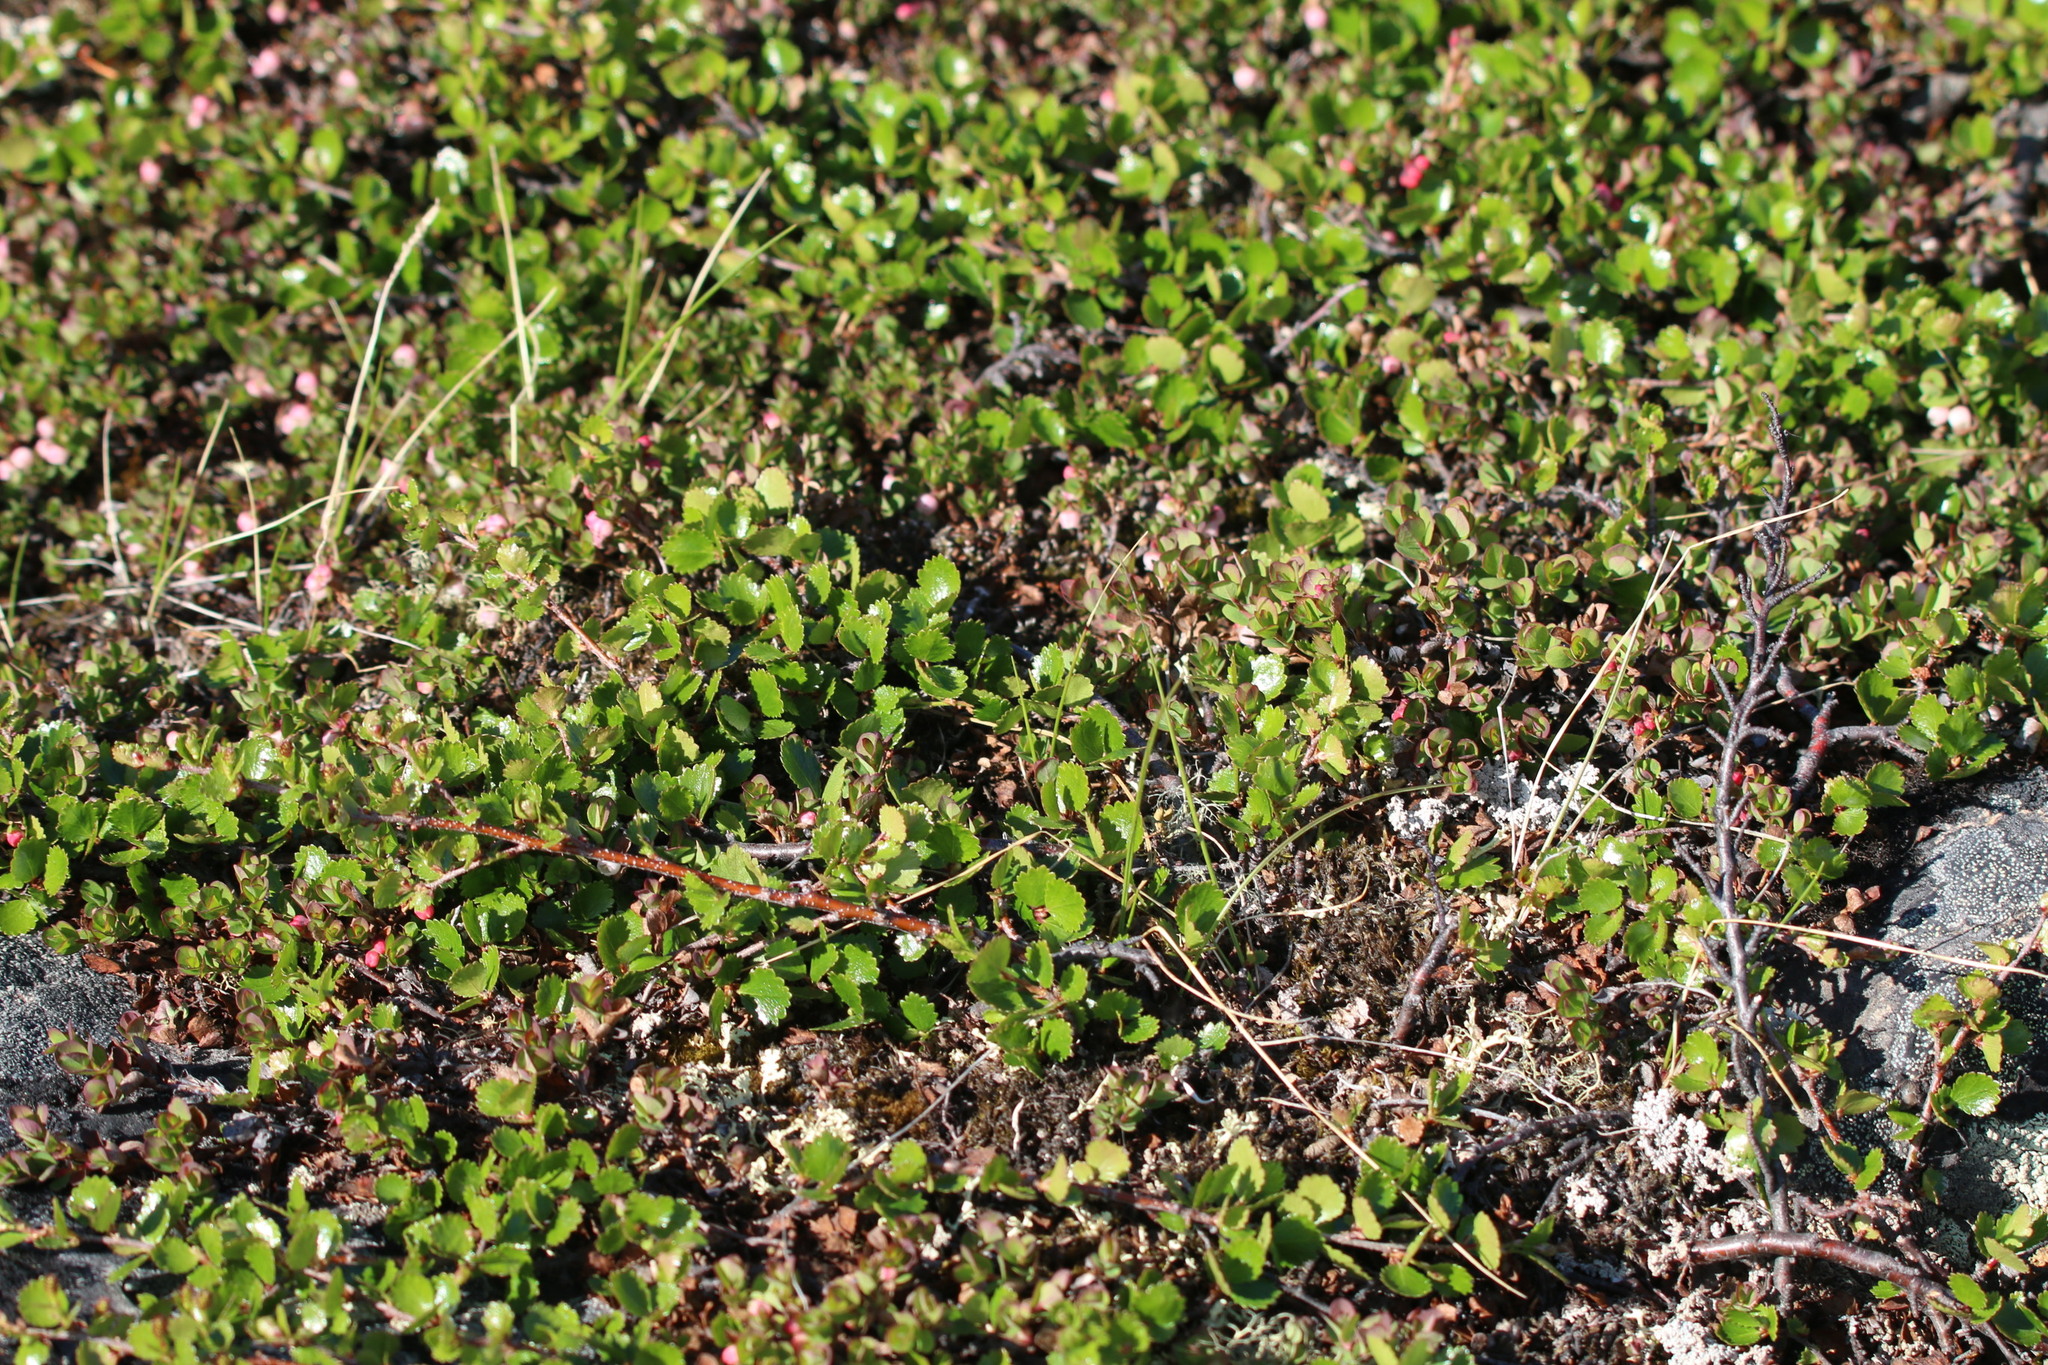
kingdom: Plantae
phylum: Tracheophyta
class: Magnoliopsida
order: Fagales
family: Betulaceae
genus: Betula
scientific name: Betula glandulosa
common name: Dwarf birch
